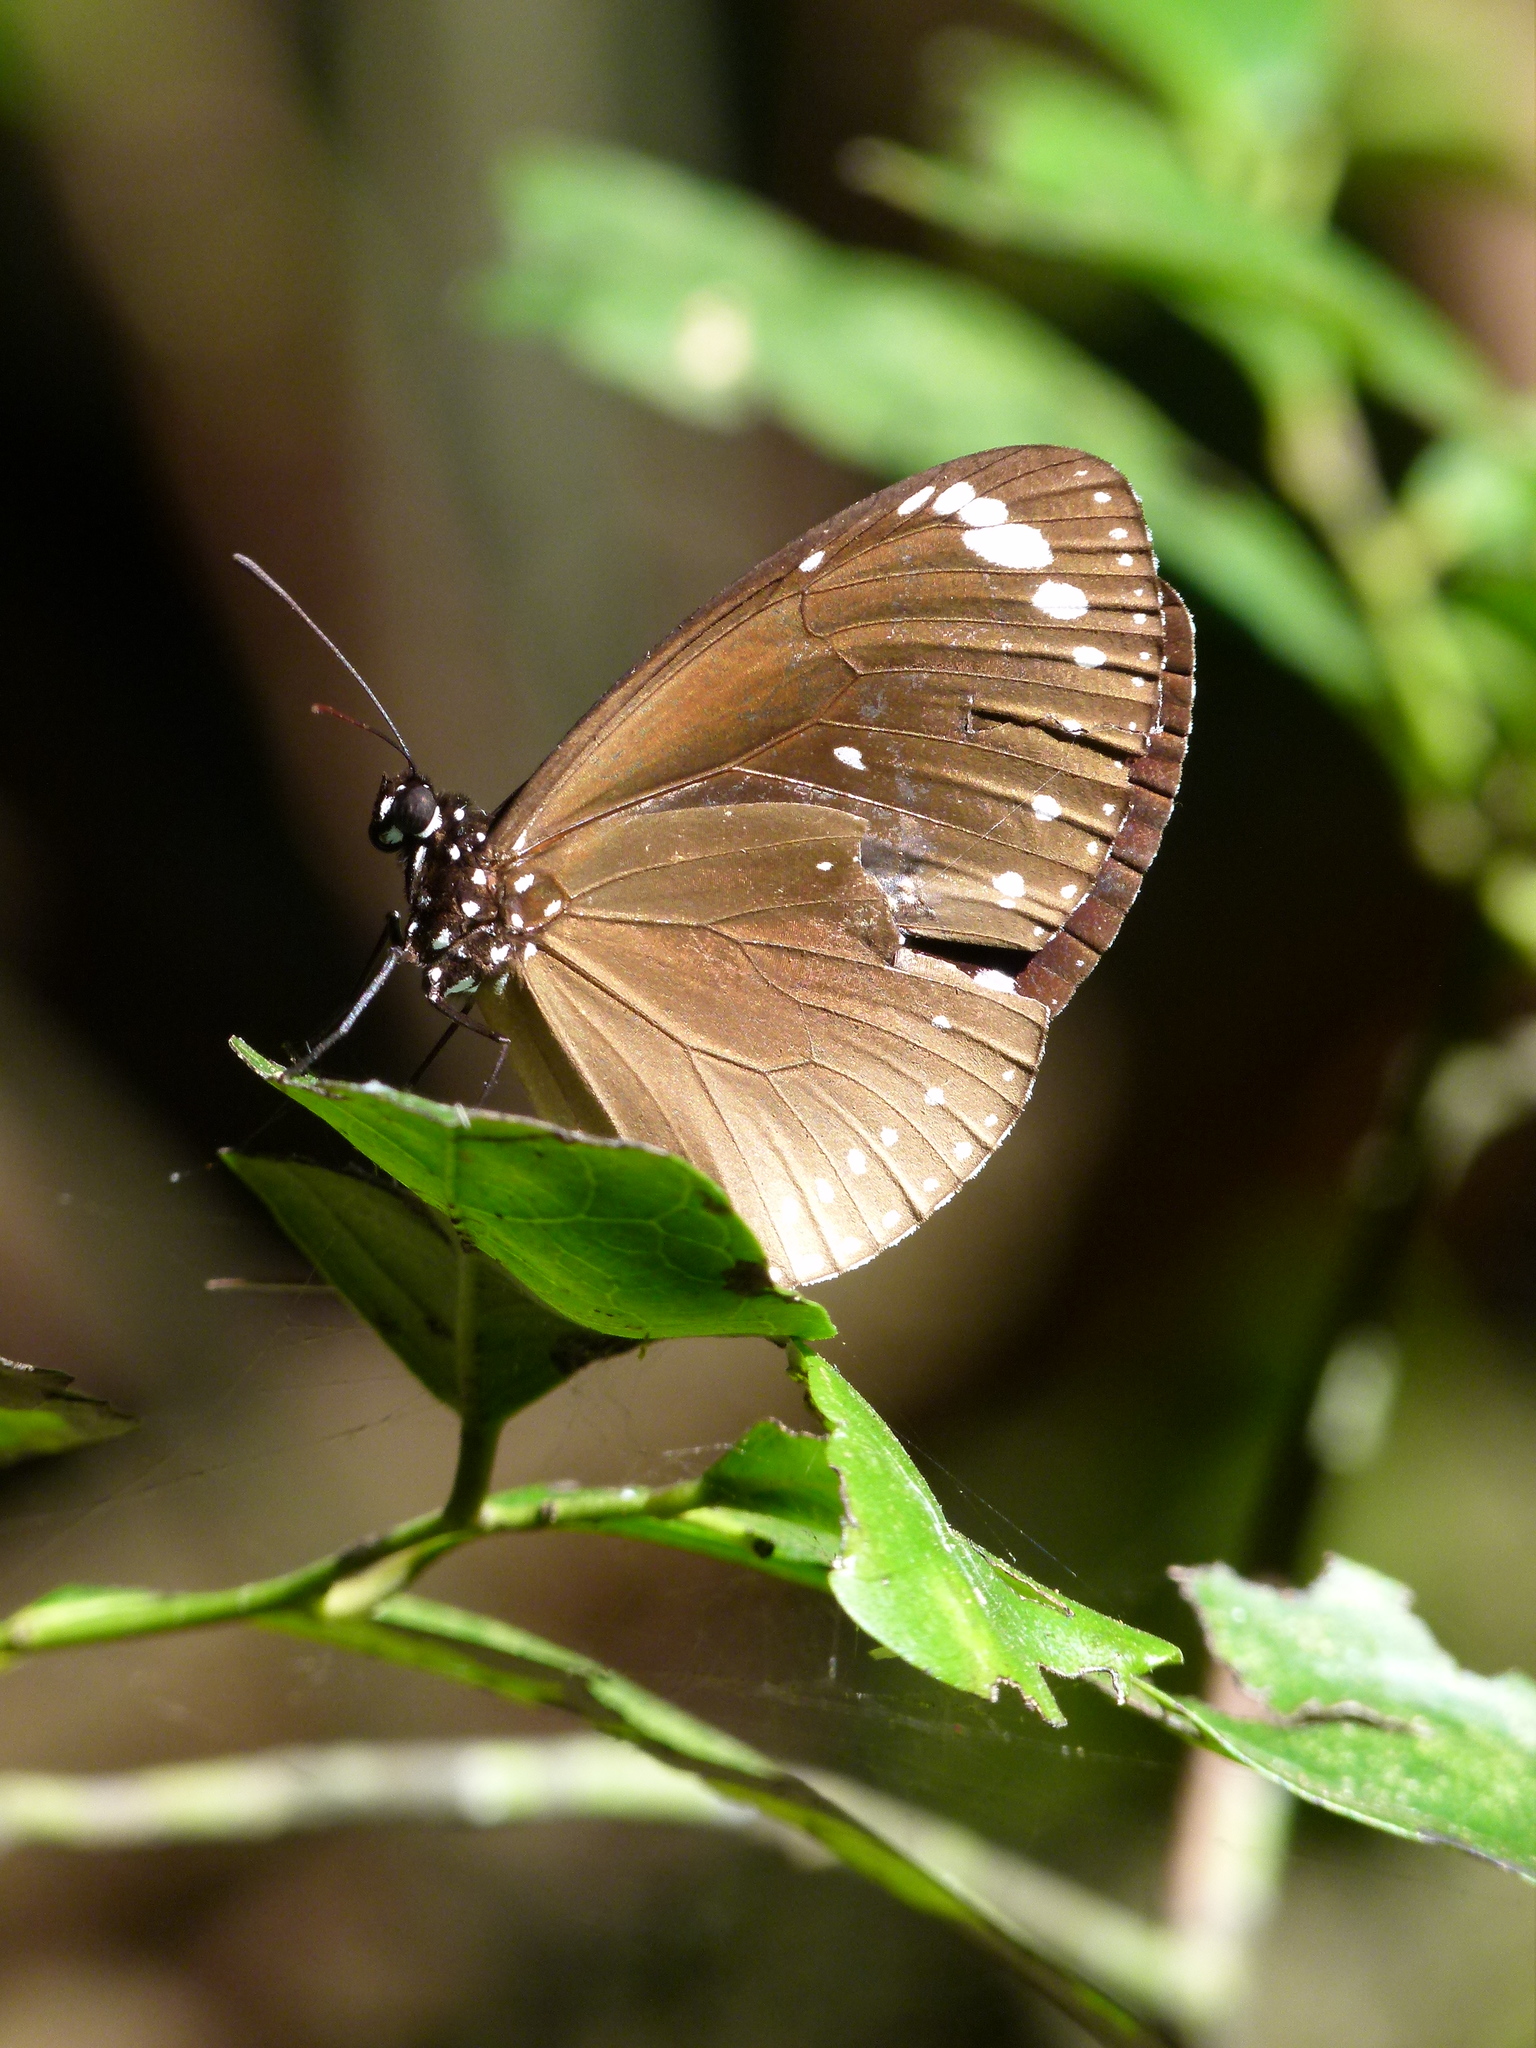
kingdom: Animalia
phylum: Arthropoda
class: Insecta
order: Lepidoptera
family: Nymphalidae
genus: Euploea
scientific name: Euploea tulliolus
